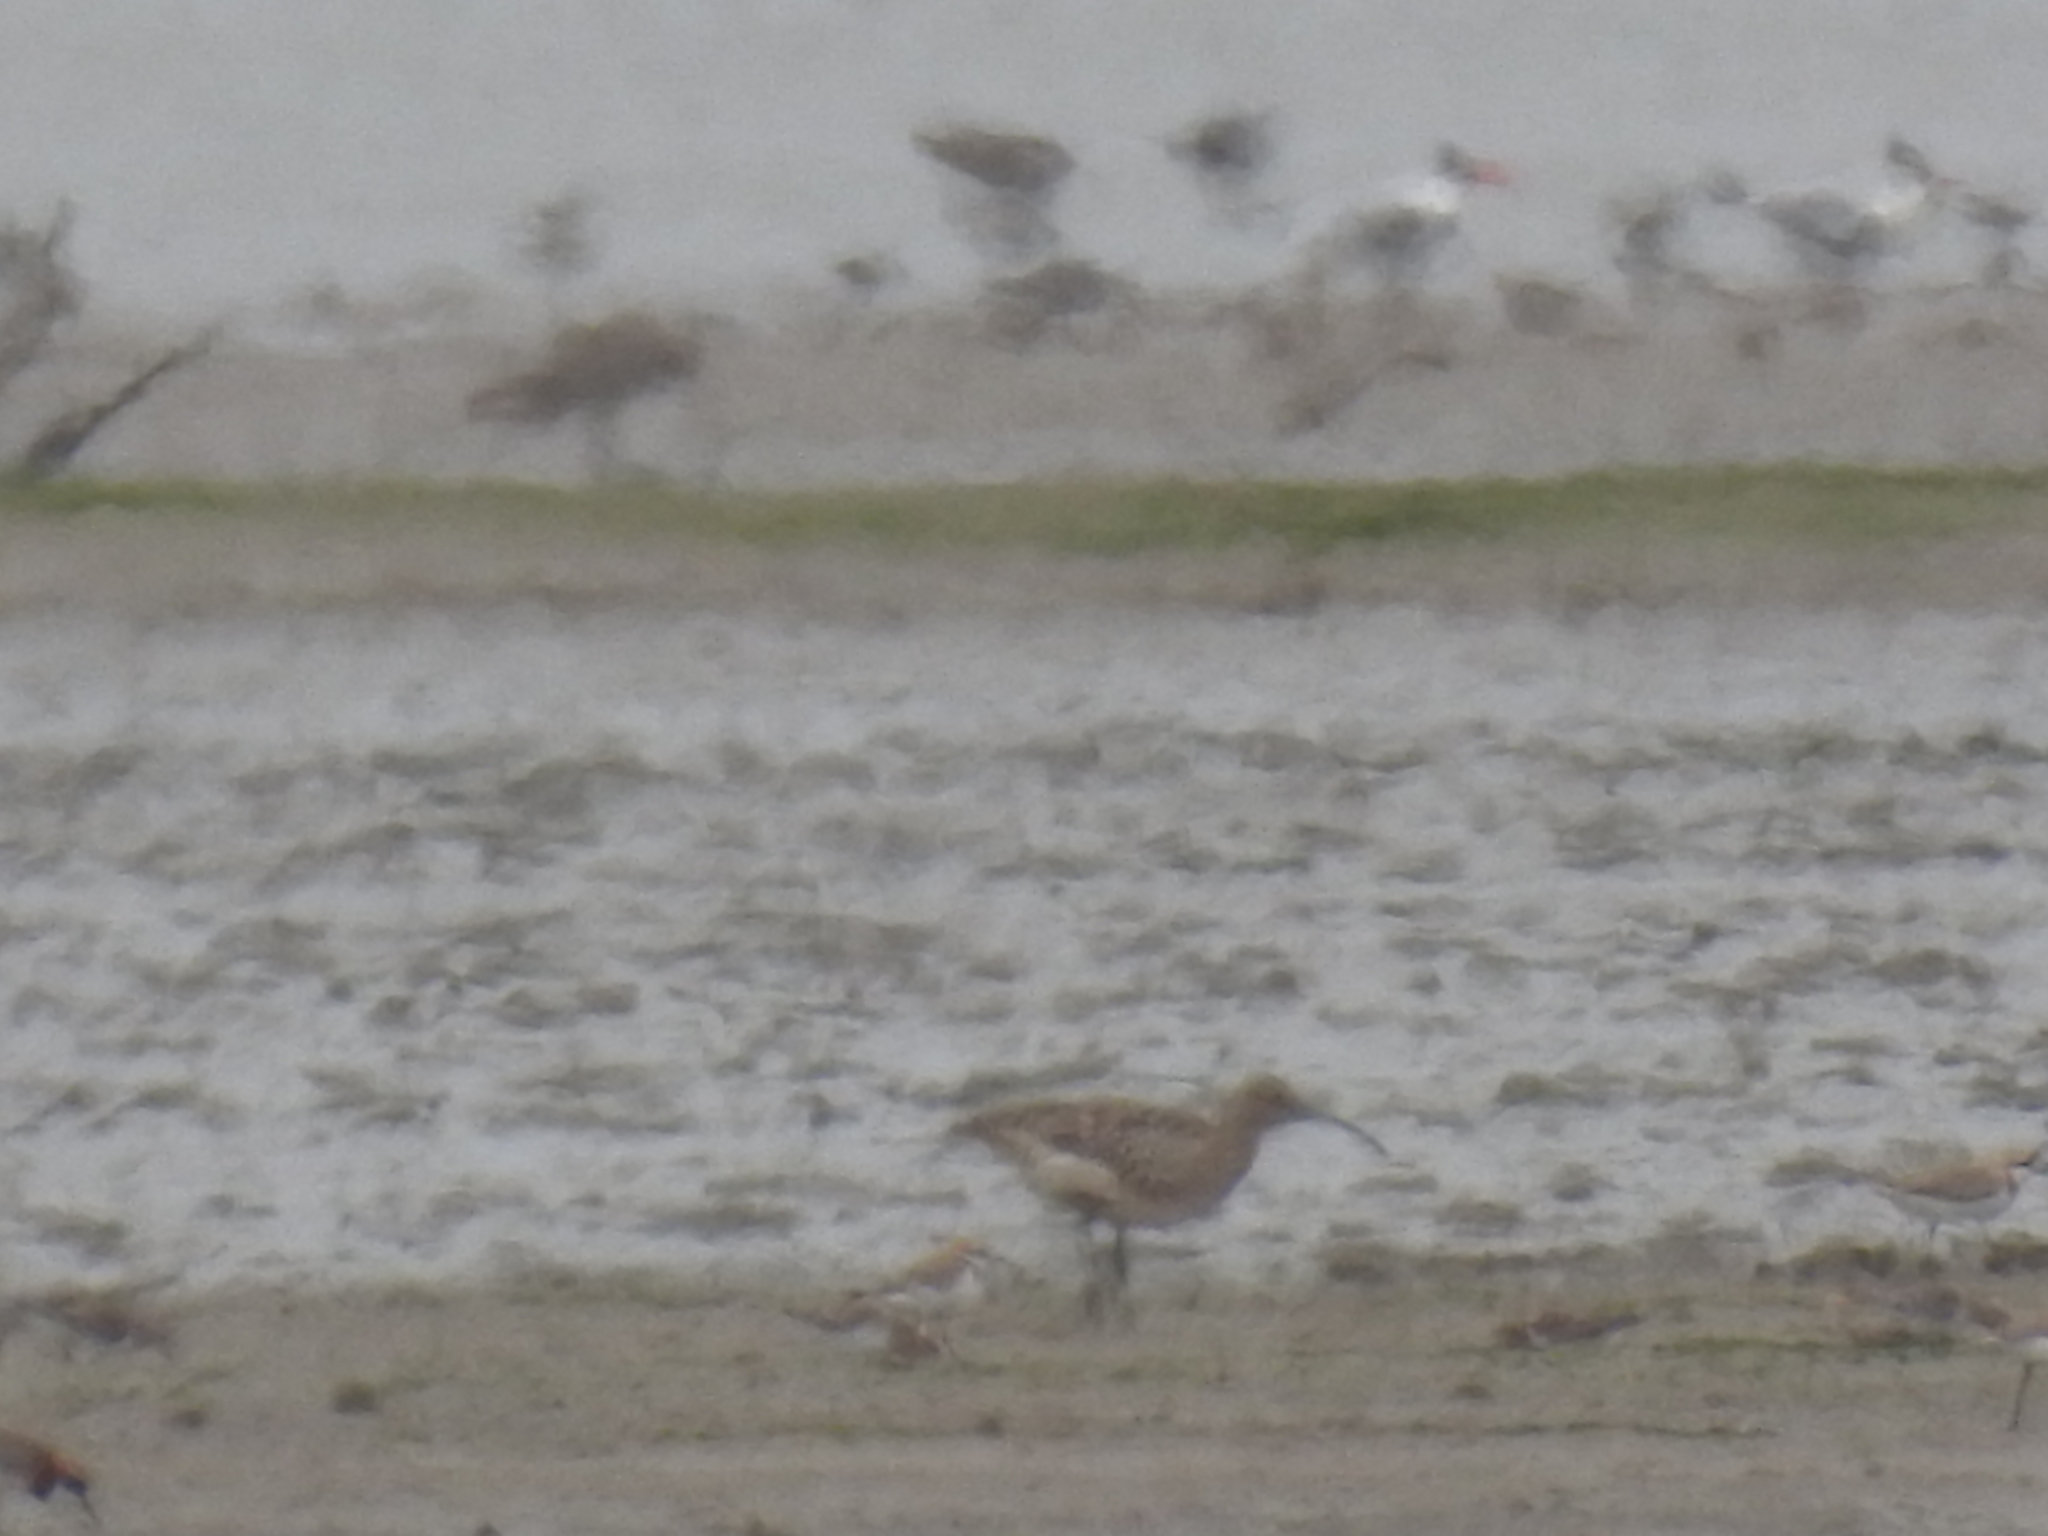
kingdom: Animalia
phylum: Chordata
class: Aves
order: Charadriiformes
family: Scolopacidae
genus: Numenius
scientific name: Numenius phaeopus
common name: Whimbrel
